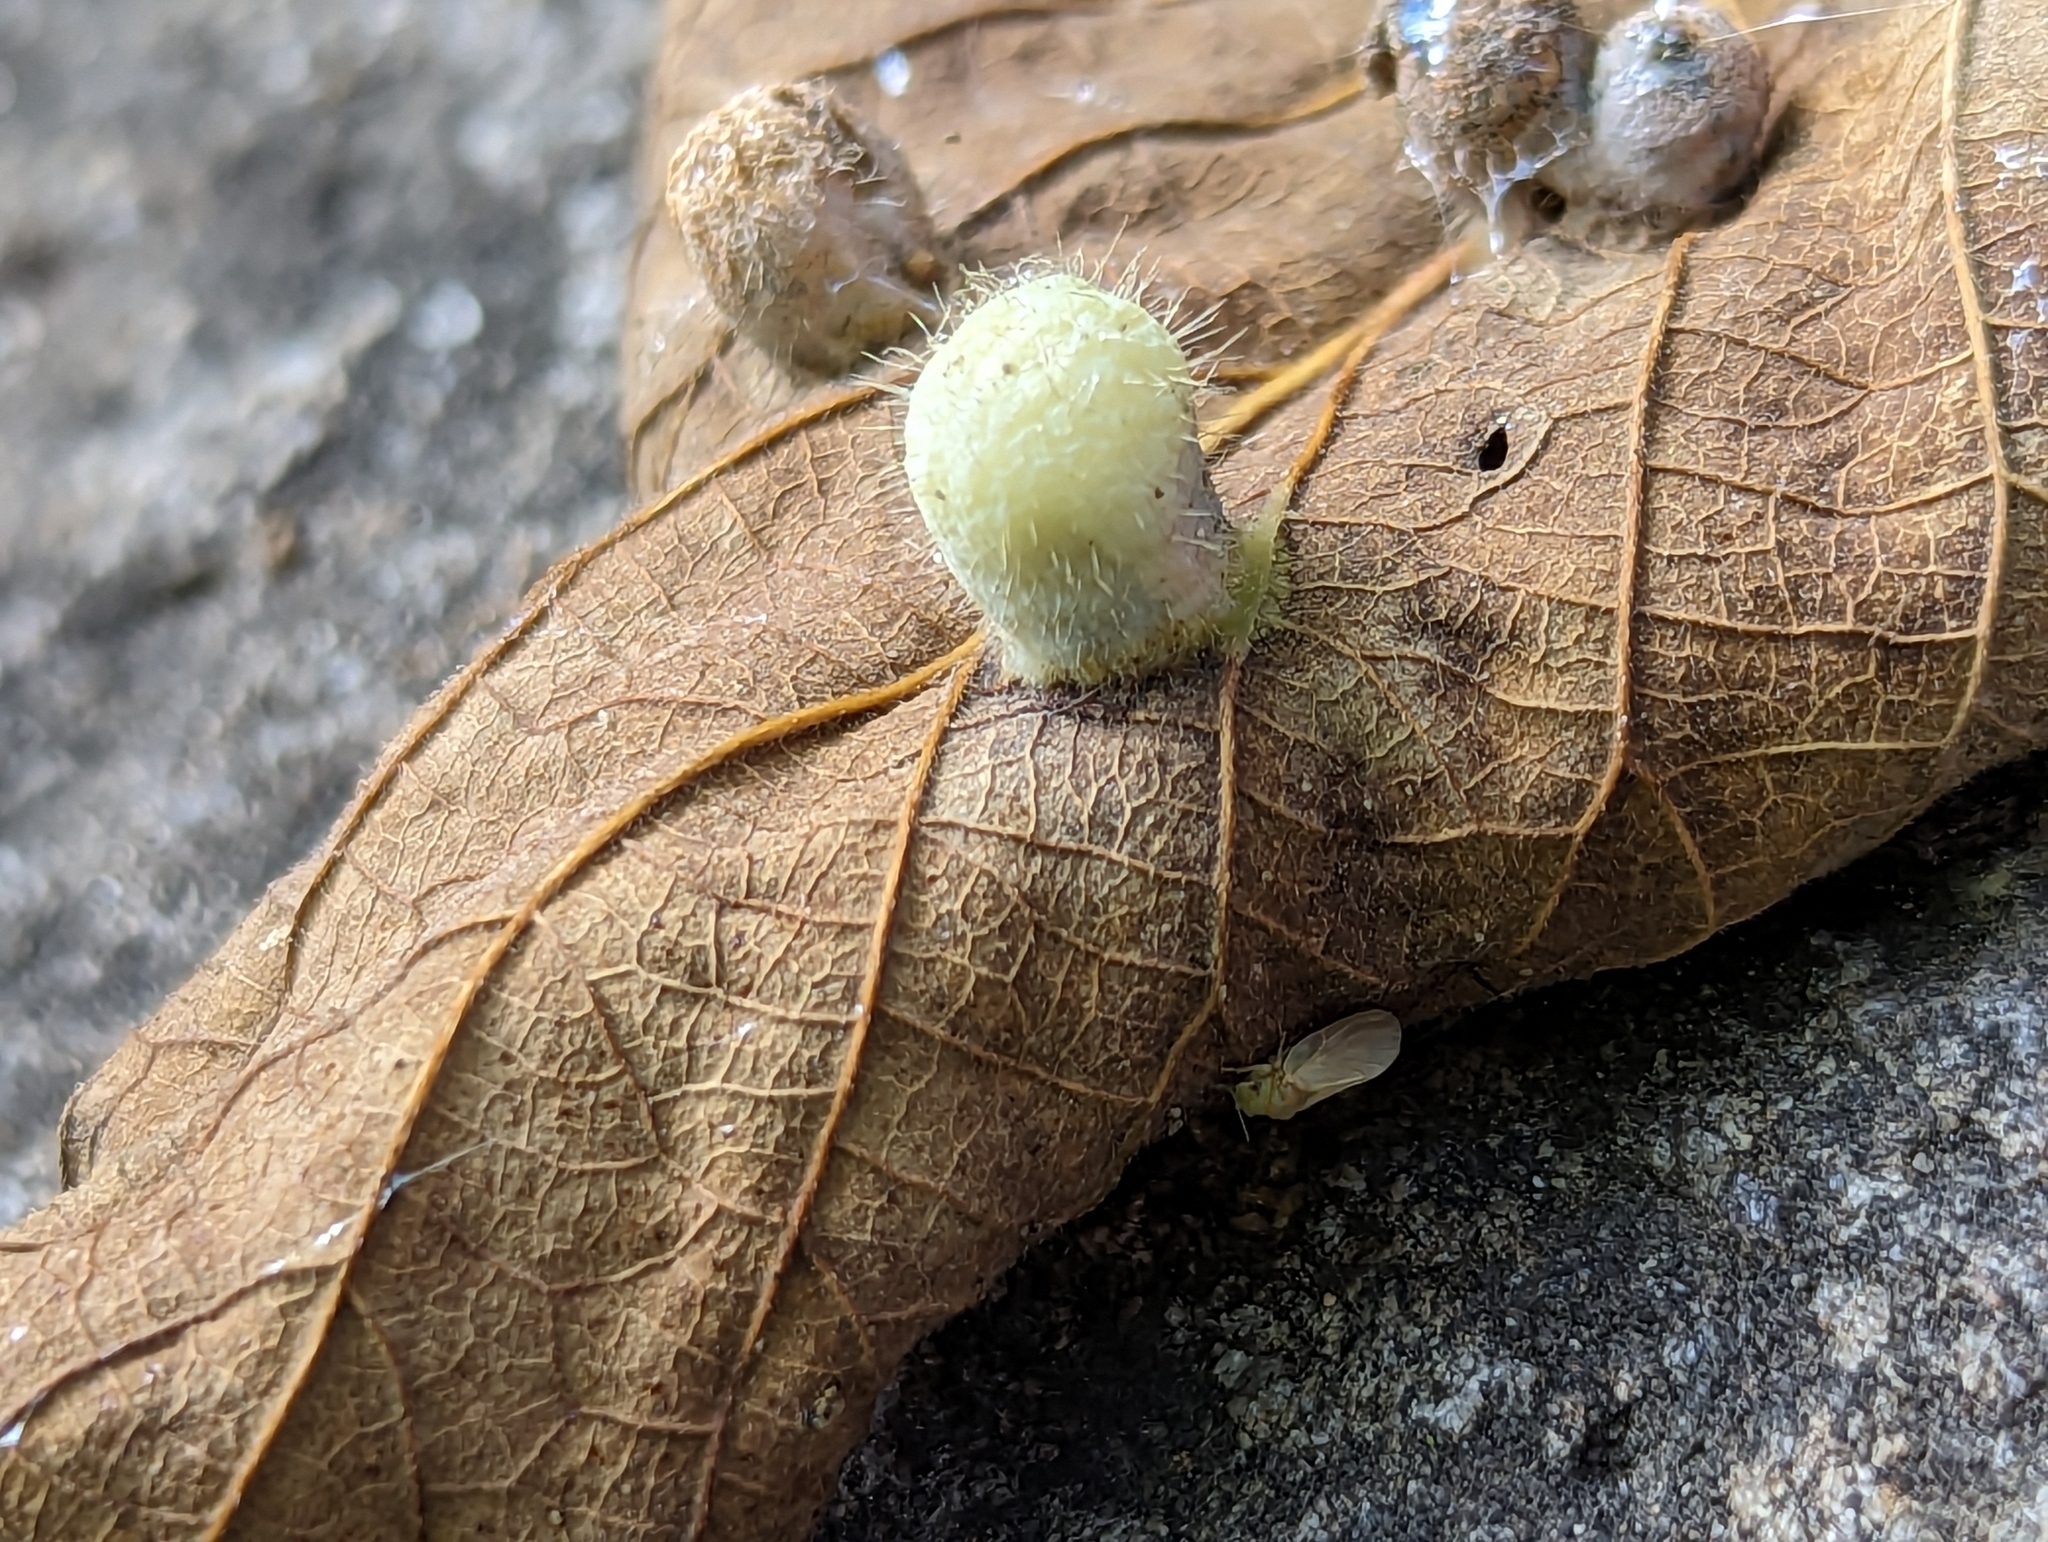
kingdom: Animalia
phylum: Arthropoda
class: Insecta
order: Hemiptera
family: Aphalaridae
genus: Pachypsylla
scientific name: Pachypsylla celtidismamma
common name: Hackberry nipplegall psyllid
